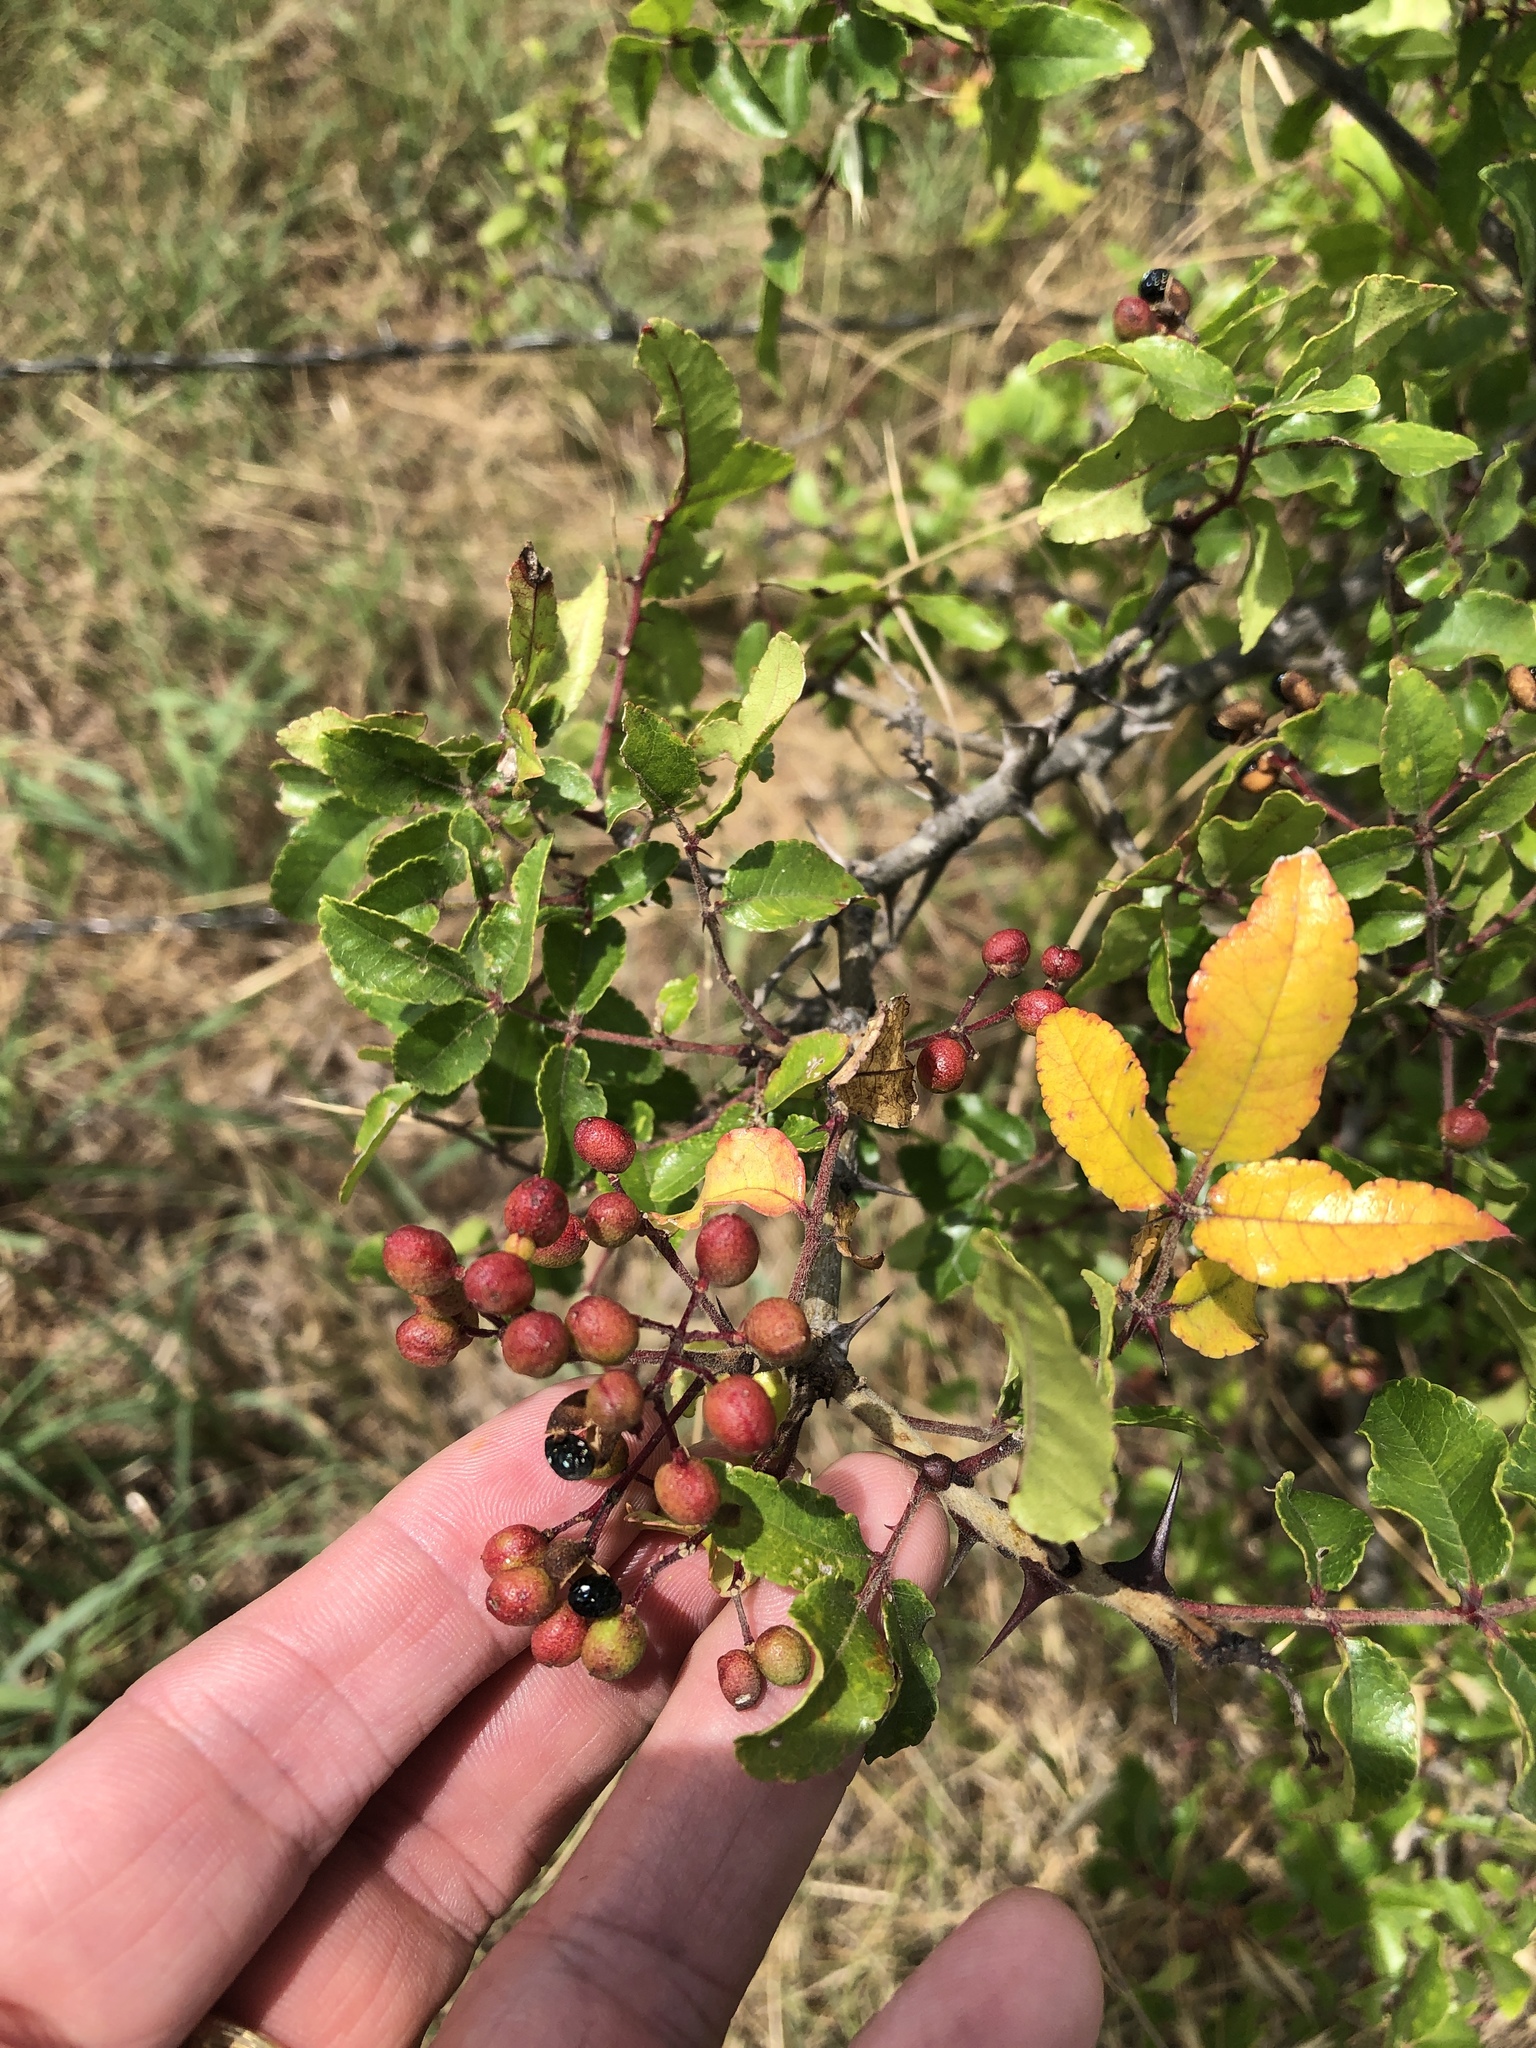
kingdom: Plantae
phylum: Tracheophyta
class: Magnoliopsida
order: Sapindales
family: Rutaceae
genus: Zanthoxylum
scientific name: Zanthoxylum clava-herculis
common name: Hercules'-club
